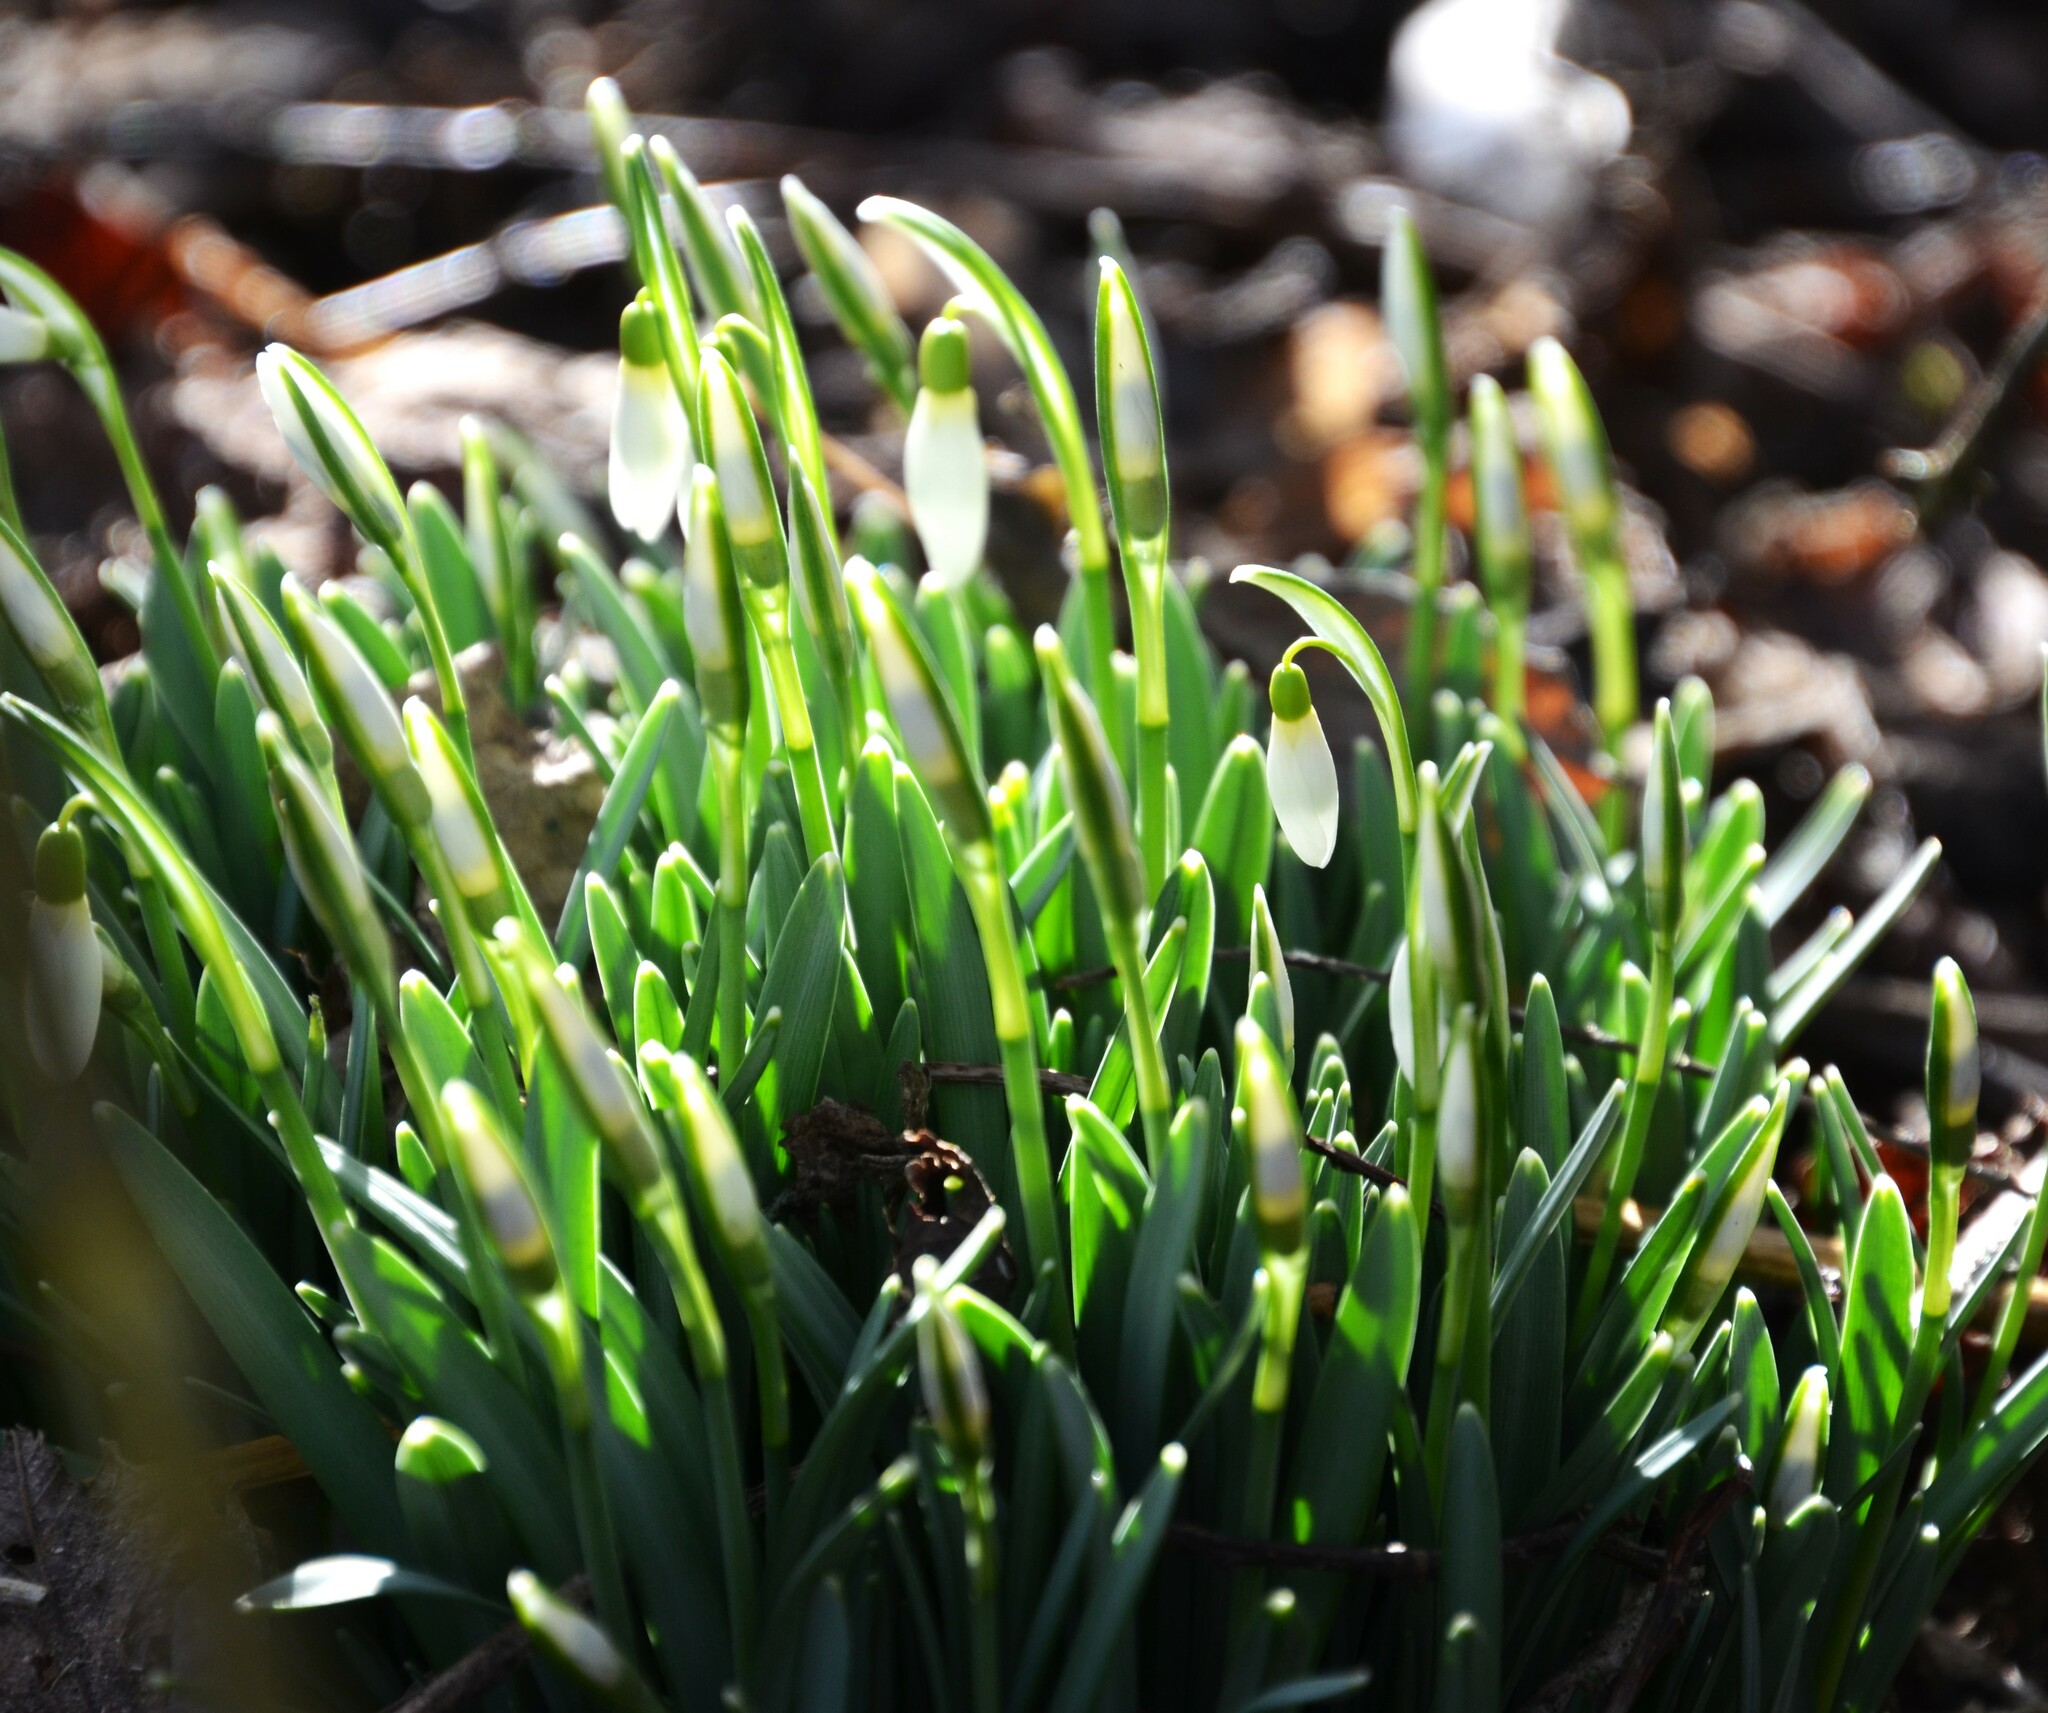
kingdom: Plantae
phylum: Tracheophyta
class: Liliopsida
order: Asparagales
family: Amaryllidaceae
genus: Galanthus
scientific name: Galanthus nivalis
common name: Snowdrop
